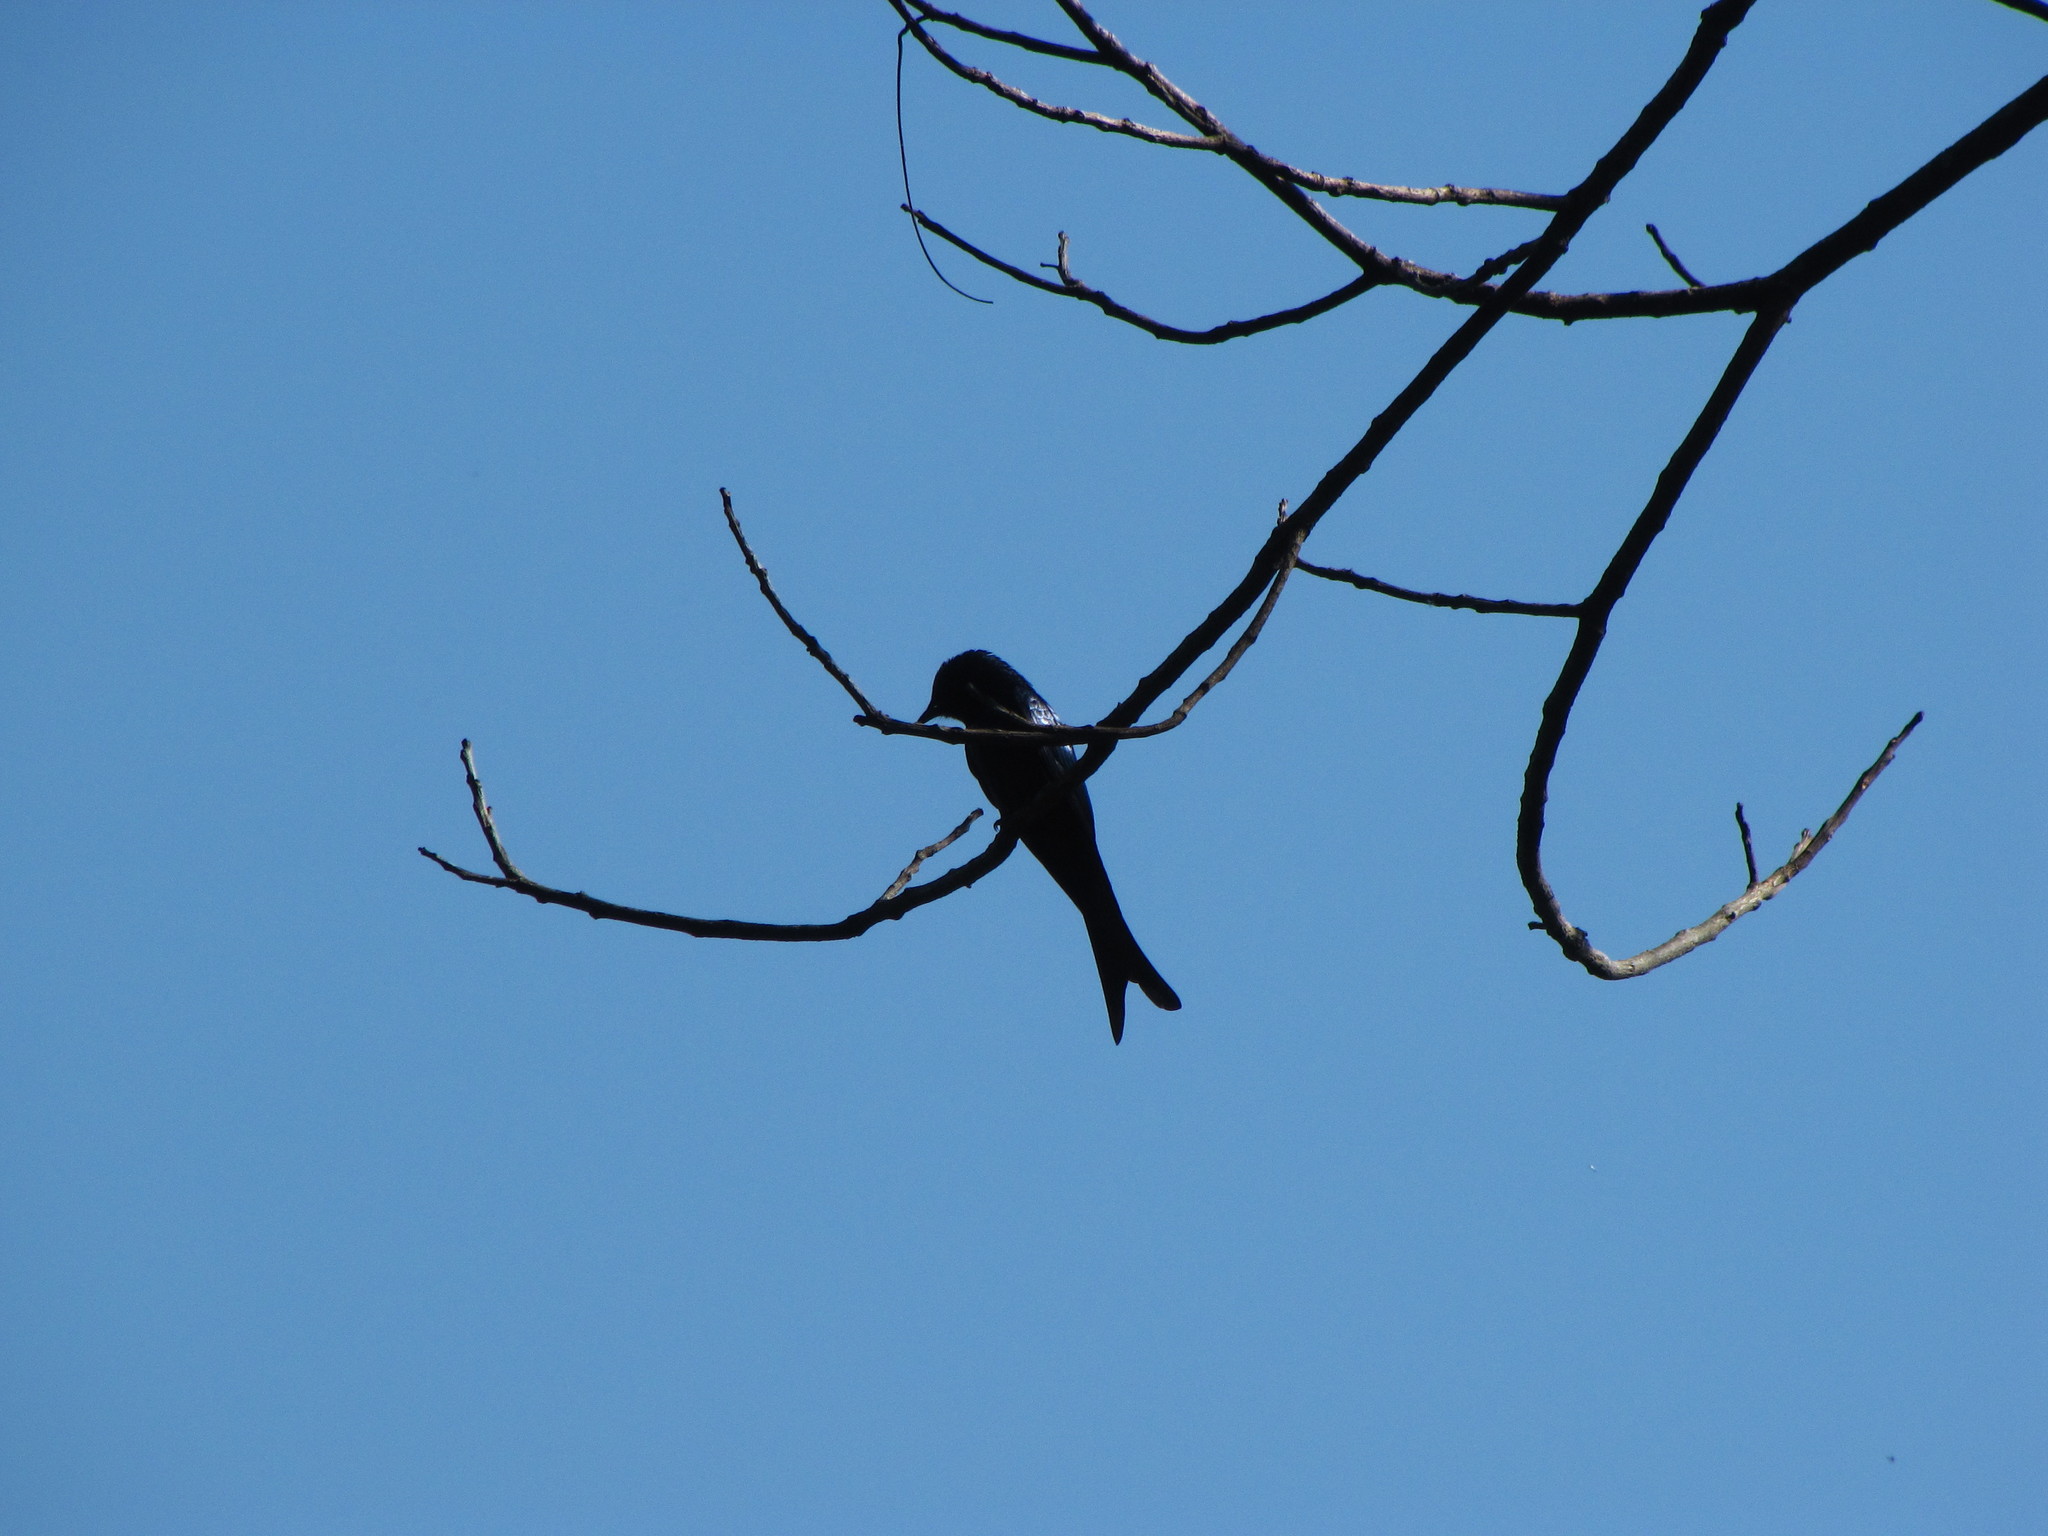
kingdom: Animalia
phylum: Chordata
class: Aves
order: Passeriformes
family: Dicruridae
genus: Dicrurus
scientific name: Dicrurus aeneus
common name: Bronzed drongo
